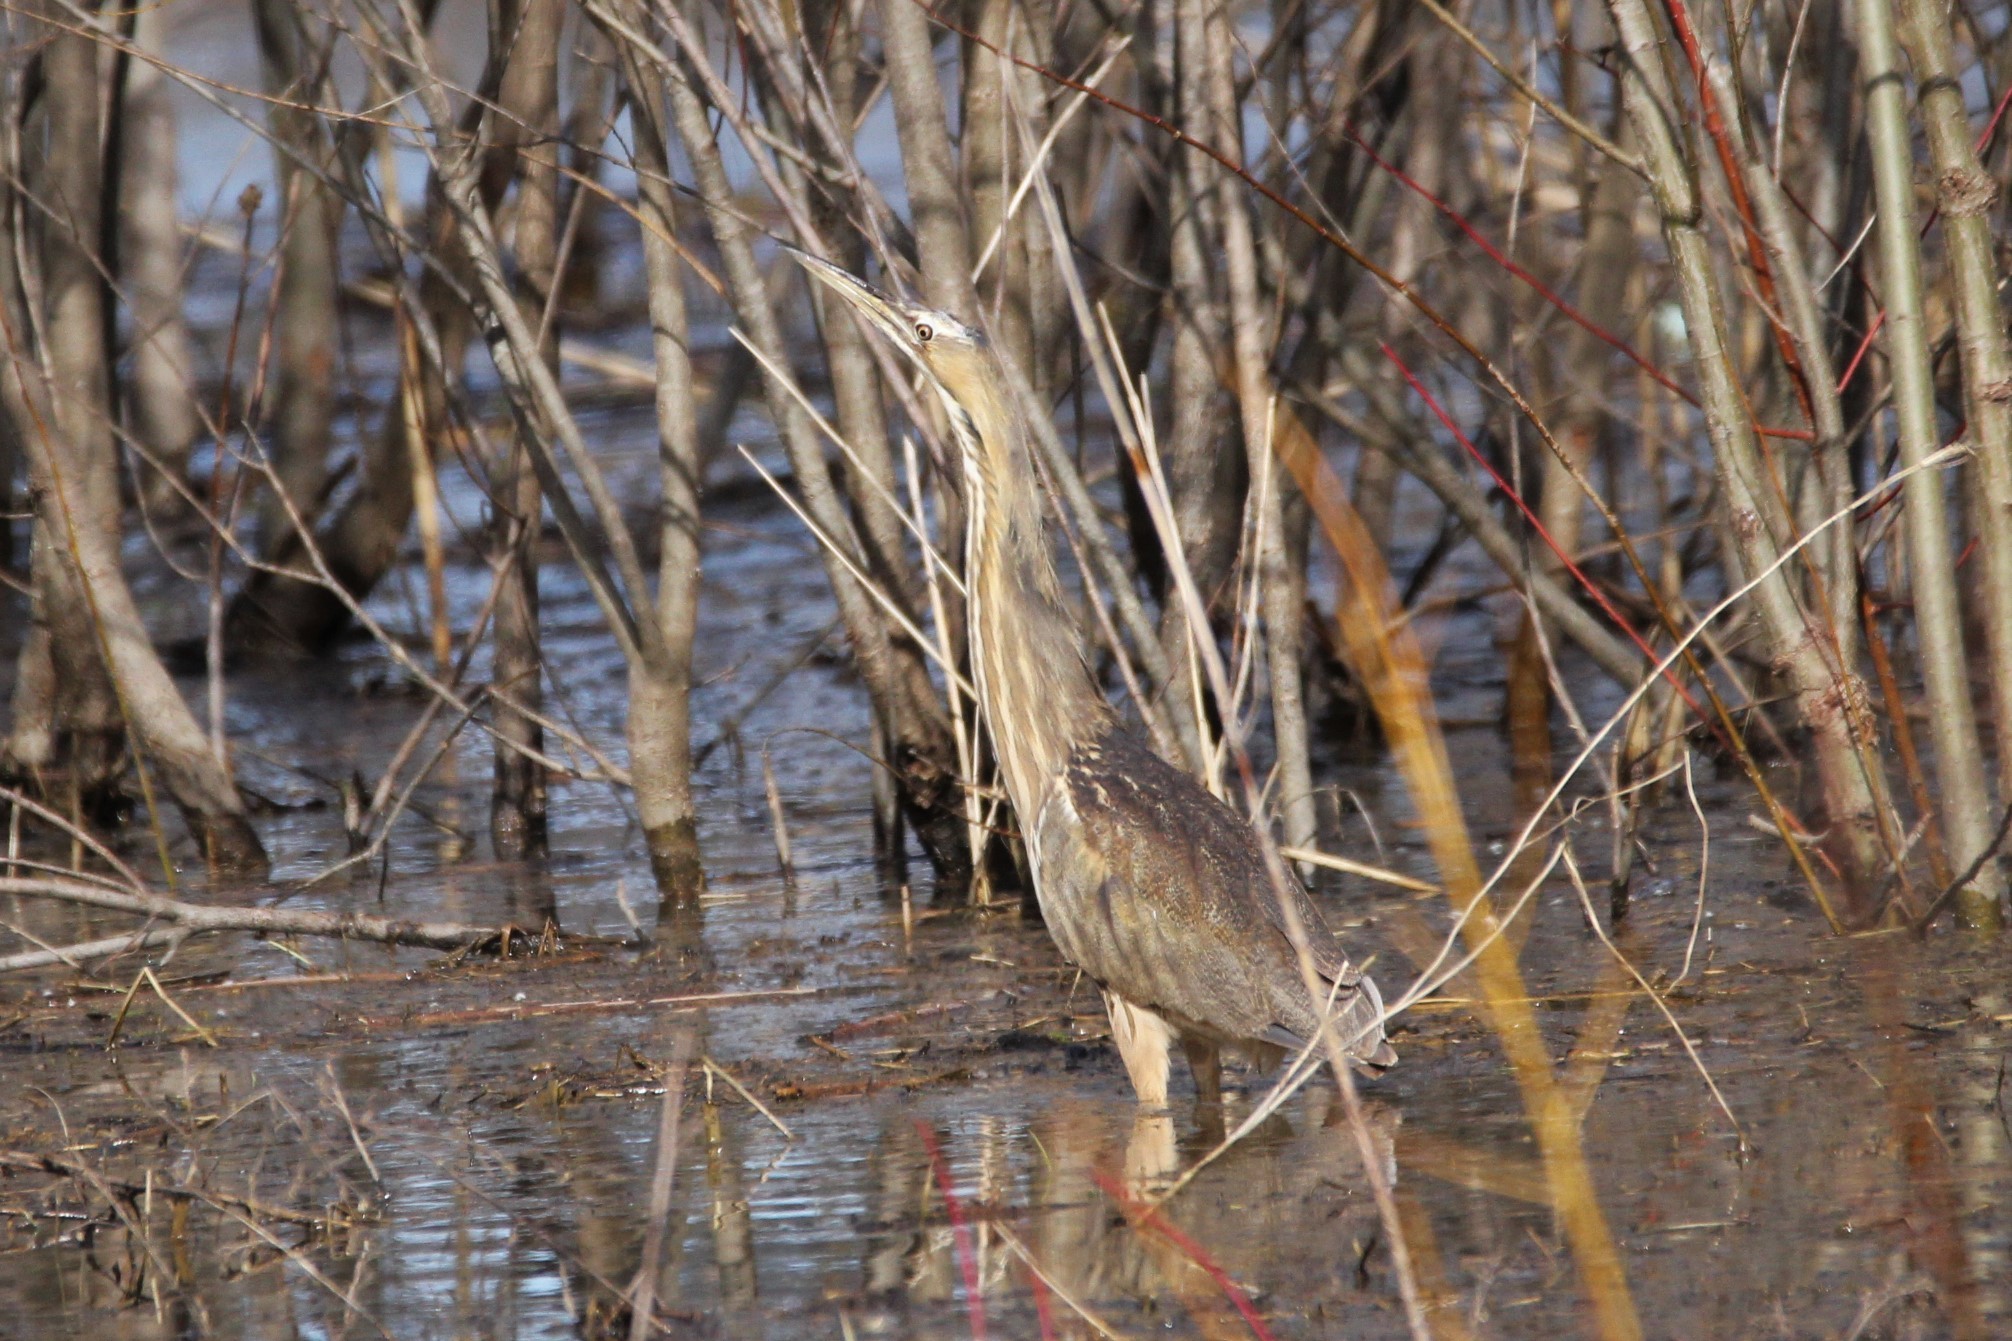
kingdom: Animalia
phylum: Chordata
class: Aves
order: Pelecaniformes
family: Ardeidae
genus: Botaurus
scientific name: Botaurus lentiginosus
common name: American bittern
